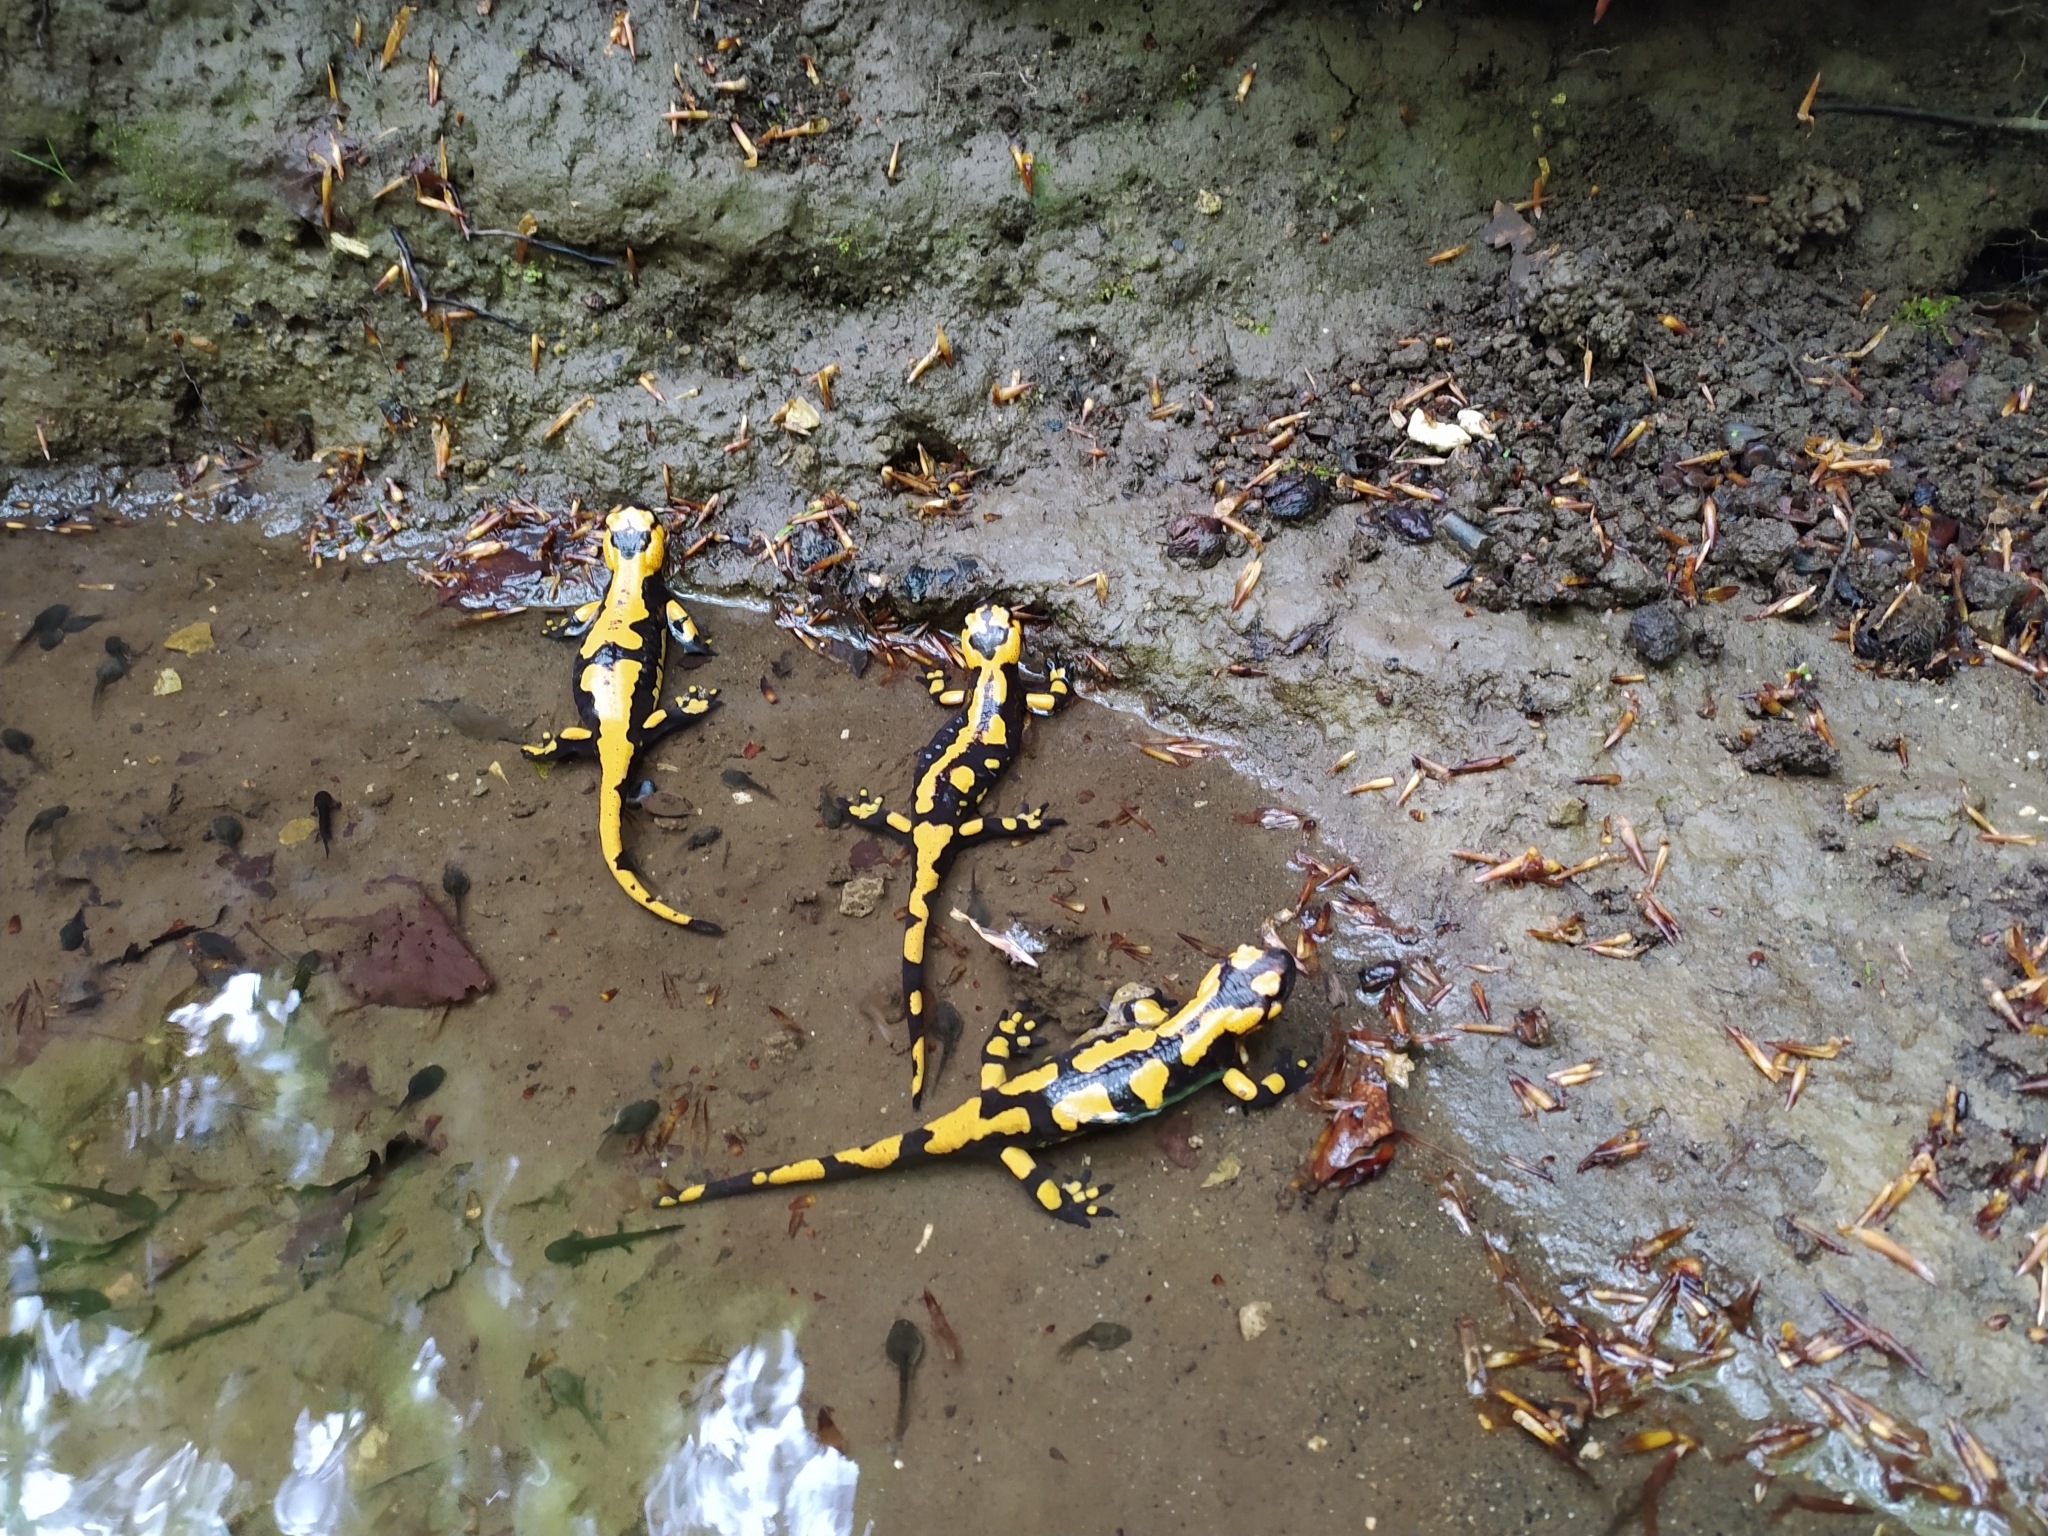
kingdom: Animalia
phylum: Chordata
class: Amphibia
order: Caudata
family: Salamandridae
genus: Salamandra
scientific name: Salamandra salamandra
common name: Fire salamander
